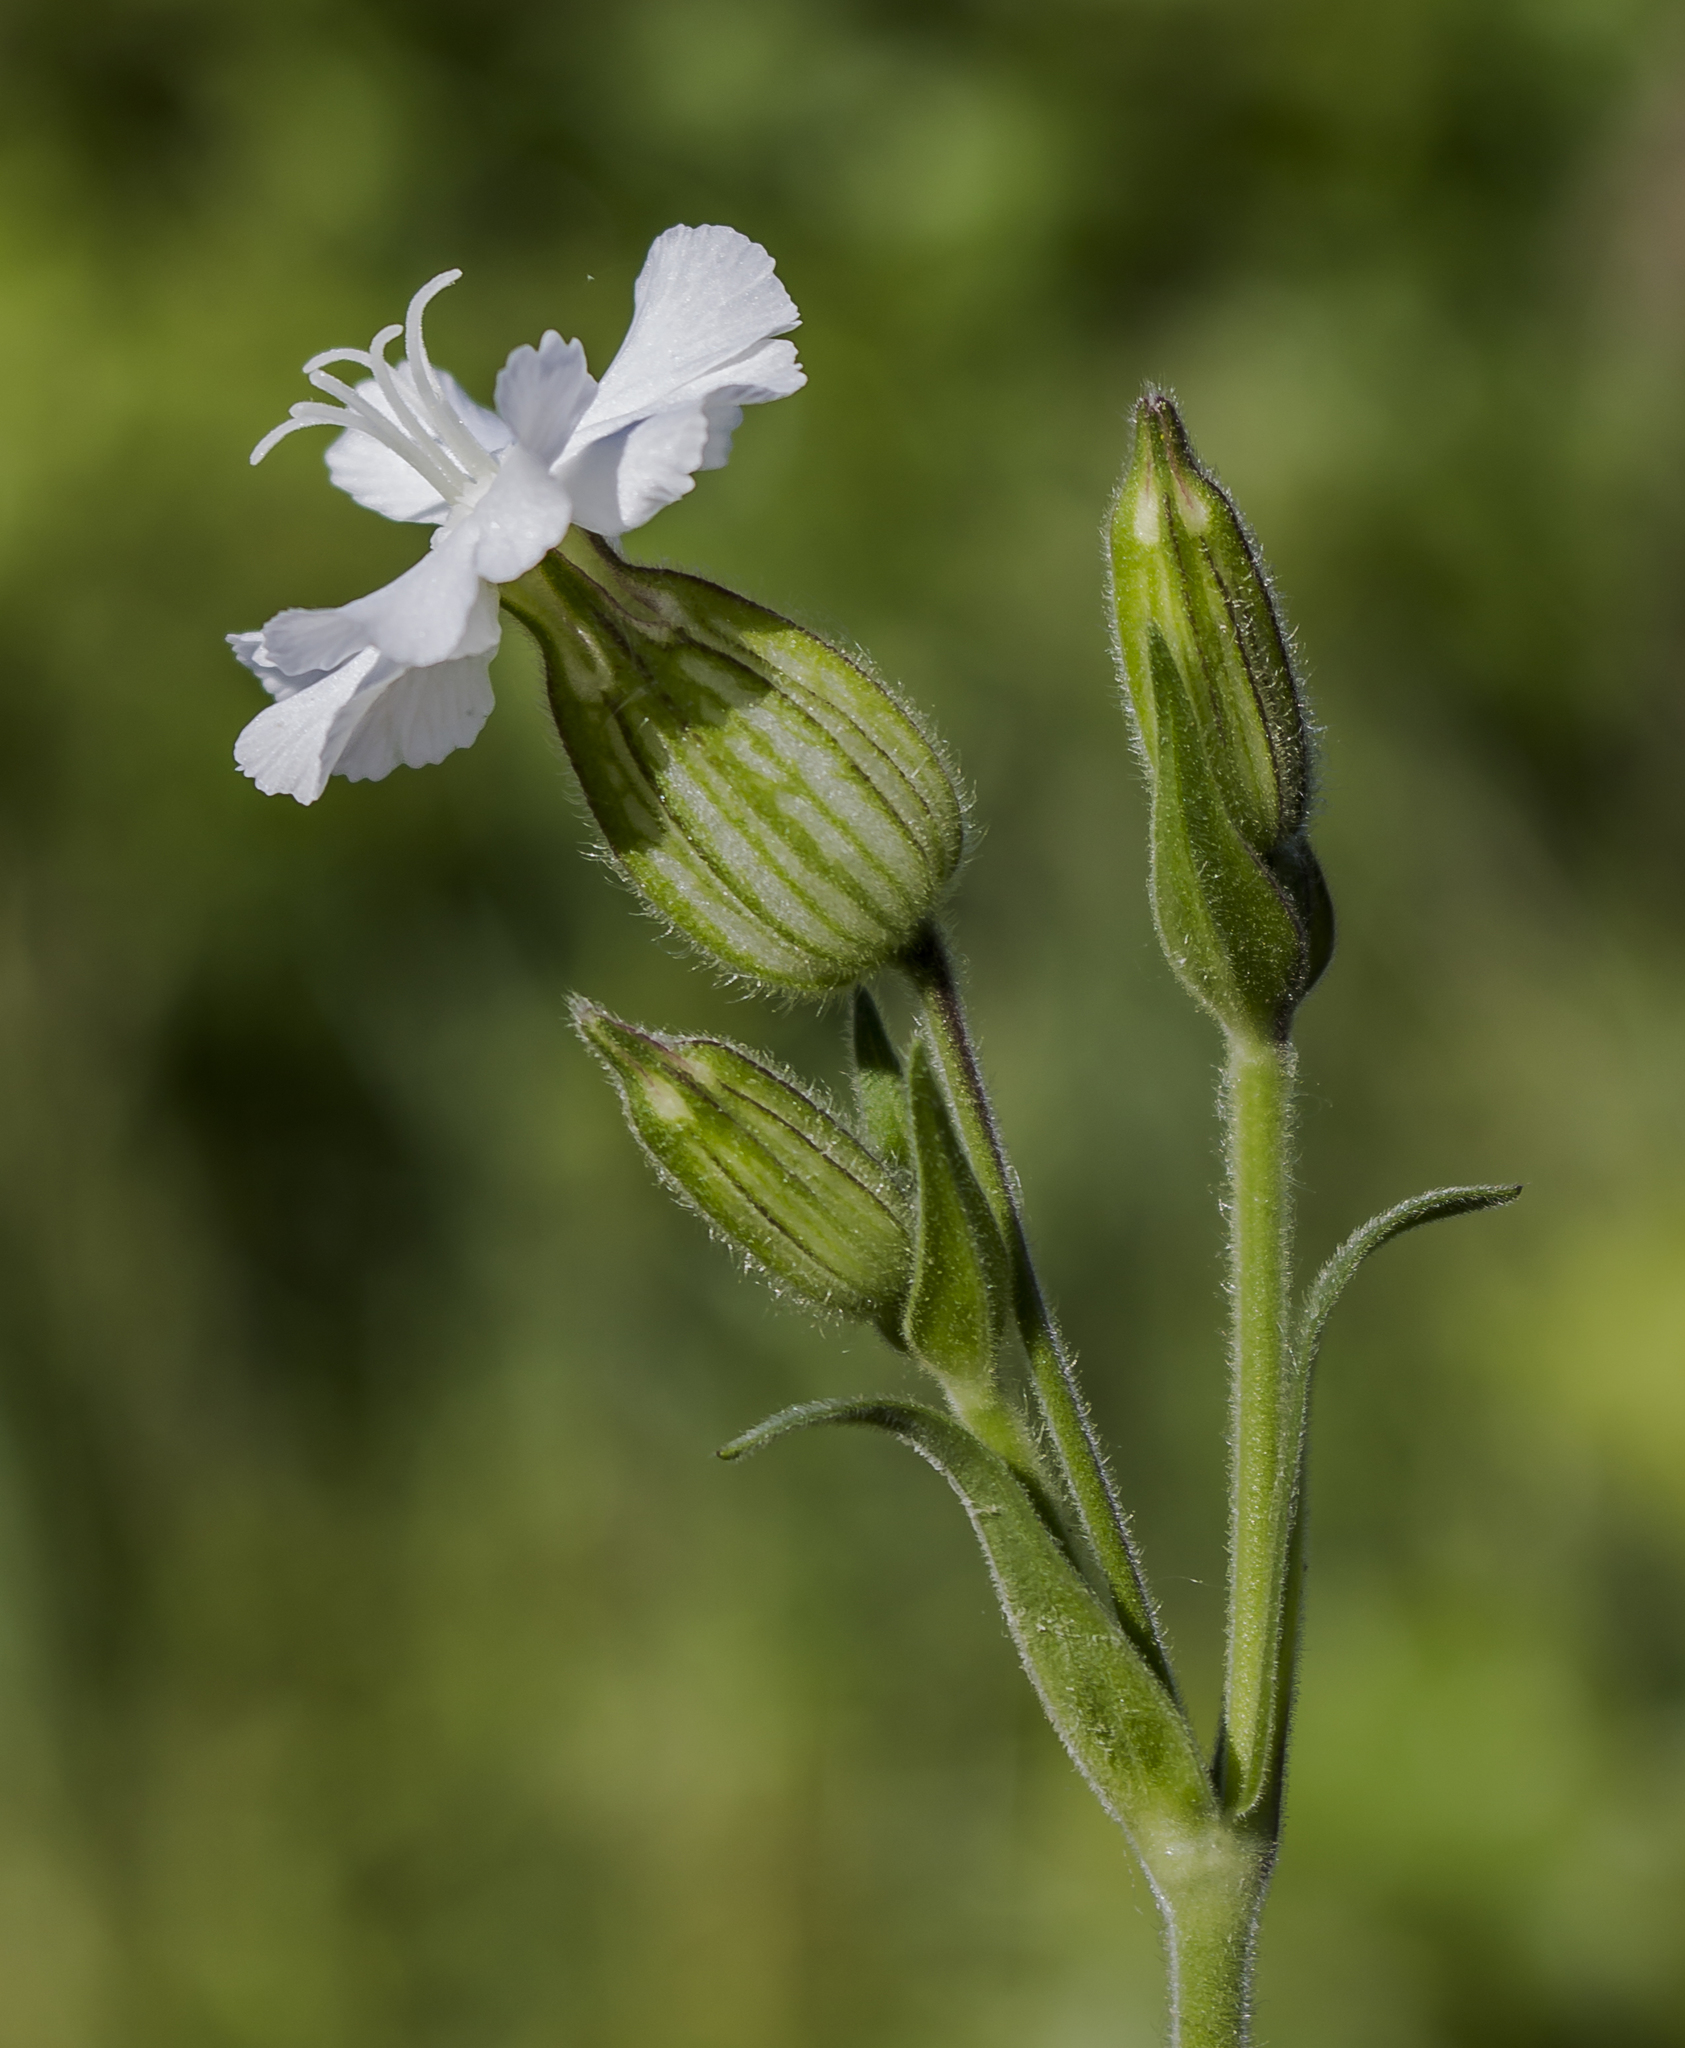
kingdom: Plantae
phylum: Tracheophyta
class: Magnoliopsida
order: Caryophyllales
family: Caryophyllaceae
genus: Silene
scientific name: Silene latifolia
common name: White campion
